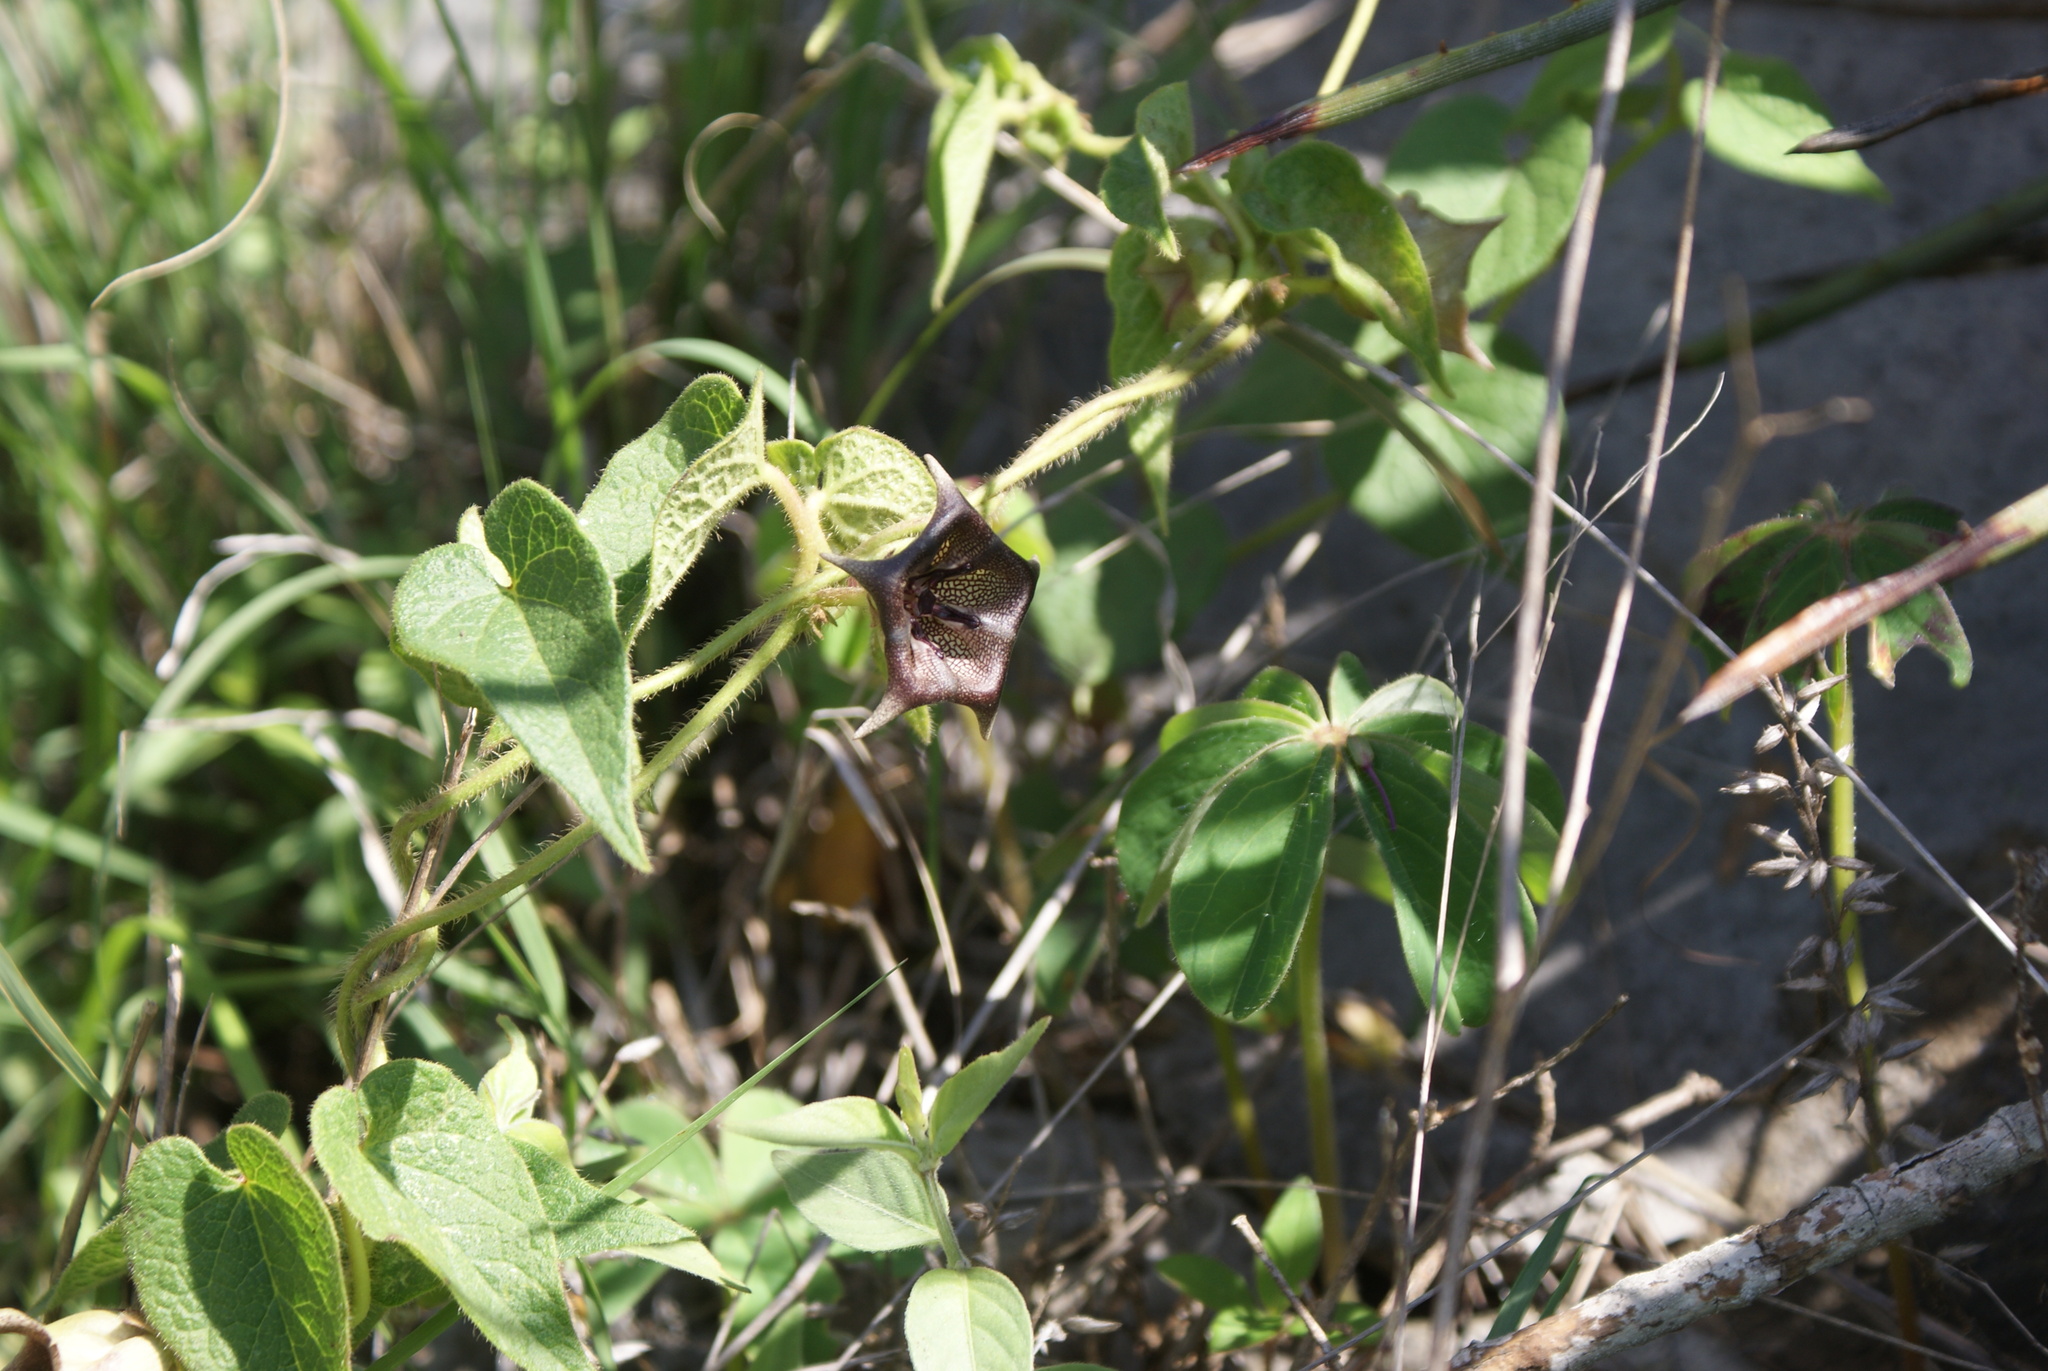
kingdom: Plantae
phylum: Tracheophyta
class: Magnoliopsida
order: Gentianales
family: Apocynaceae
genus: Dictyanthus
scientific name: Dictyanthus reticulatus
